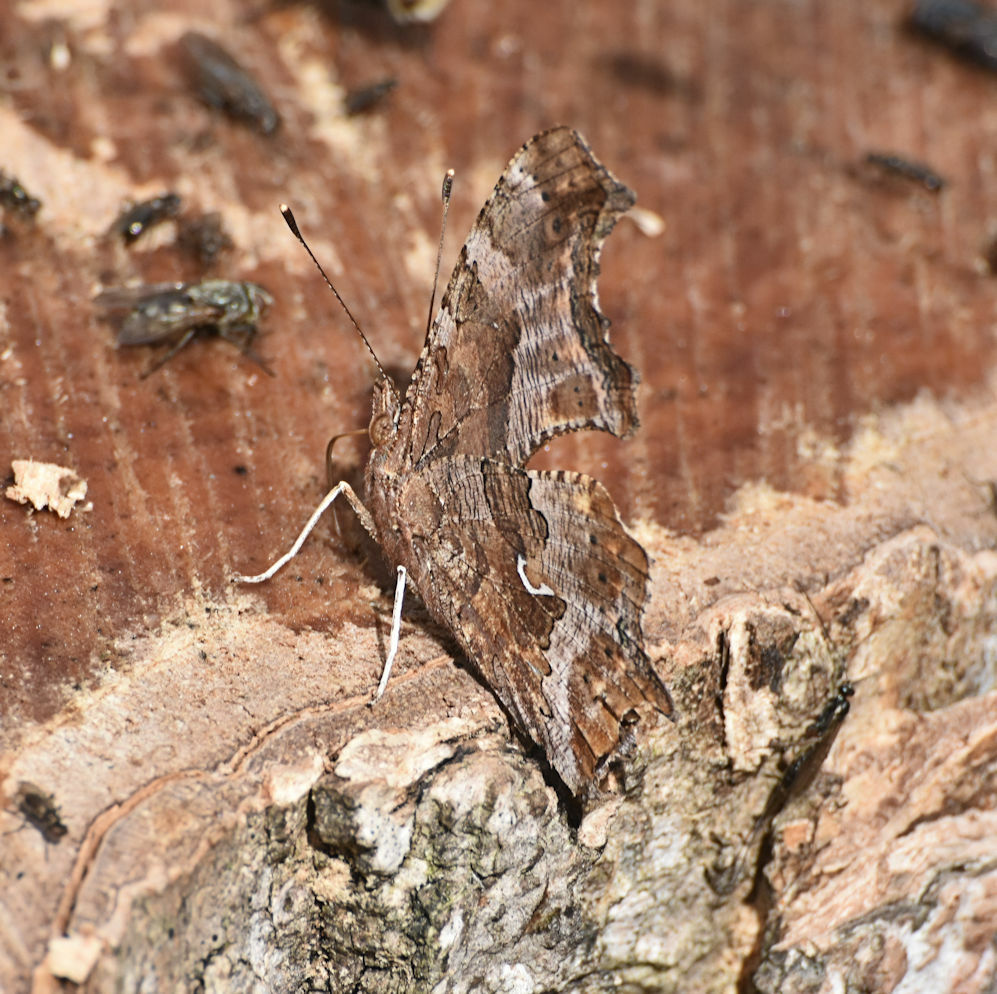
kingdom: Animalia
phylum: Arthropoda
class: Insecta
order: Lepidoptera
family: Nymphalidae
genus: Polygonia
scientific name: Polygonia comma
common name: Eastern comma
